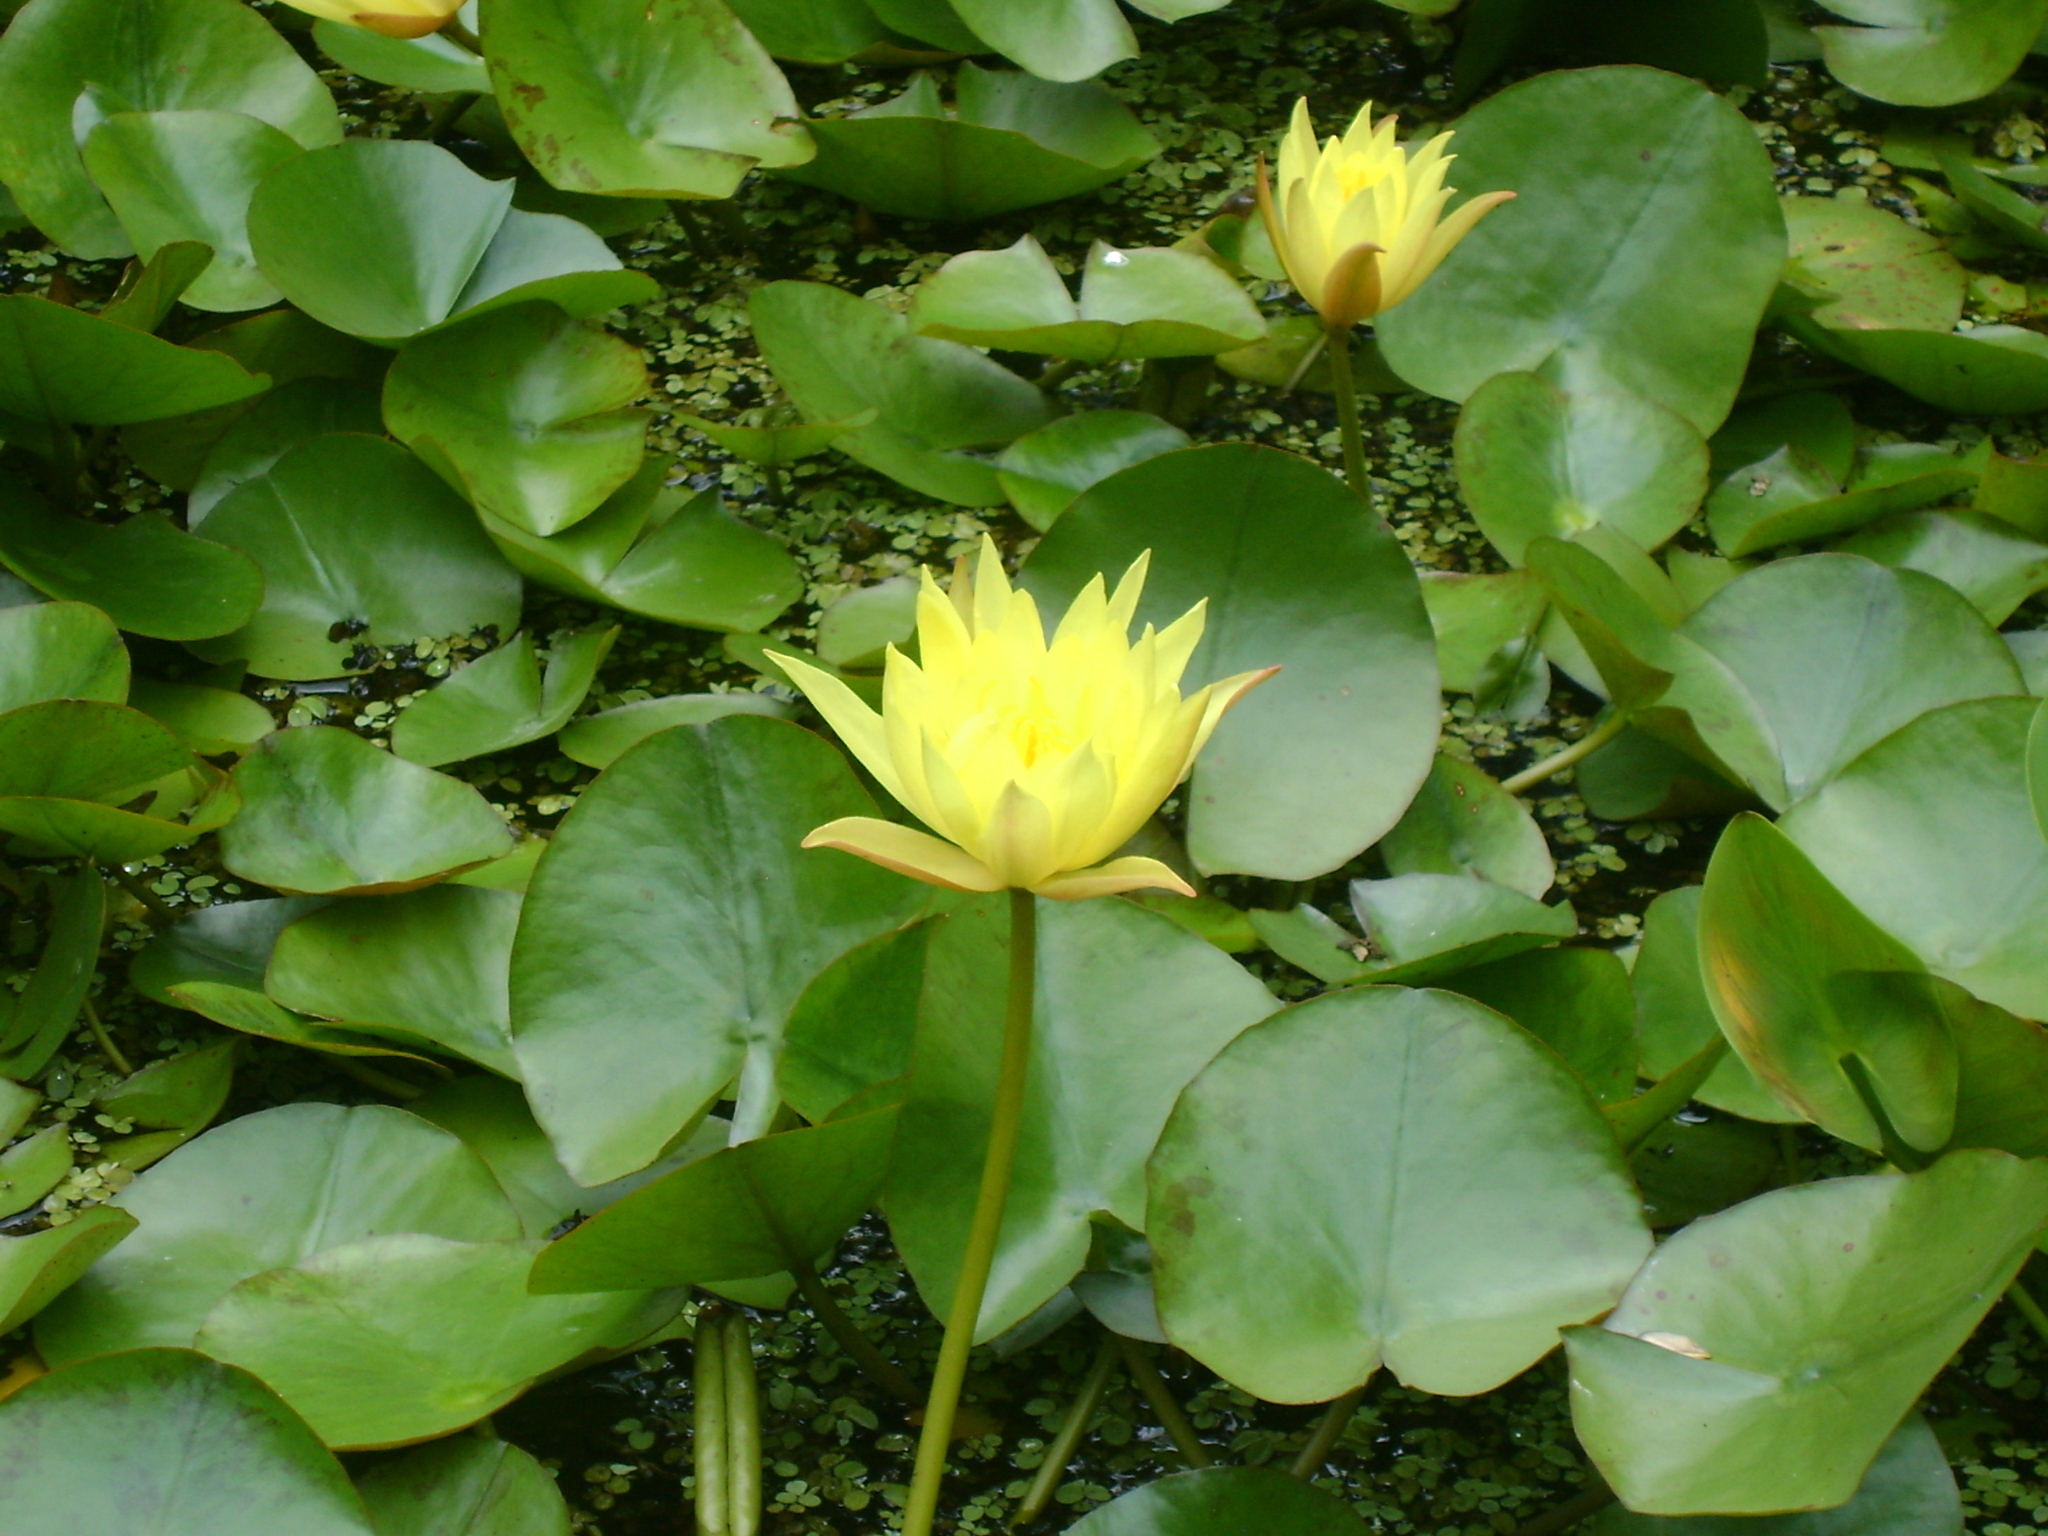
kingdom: Plantae
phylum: Tracheophyta
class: Magnoliopsida
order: Nymphaeales
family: Nymphaeaceae
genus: Nymphaea
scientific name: Nymphaea mexicana
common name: Banana water-lily
